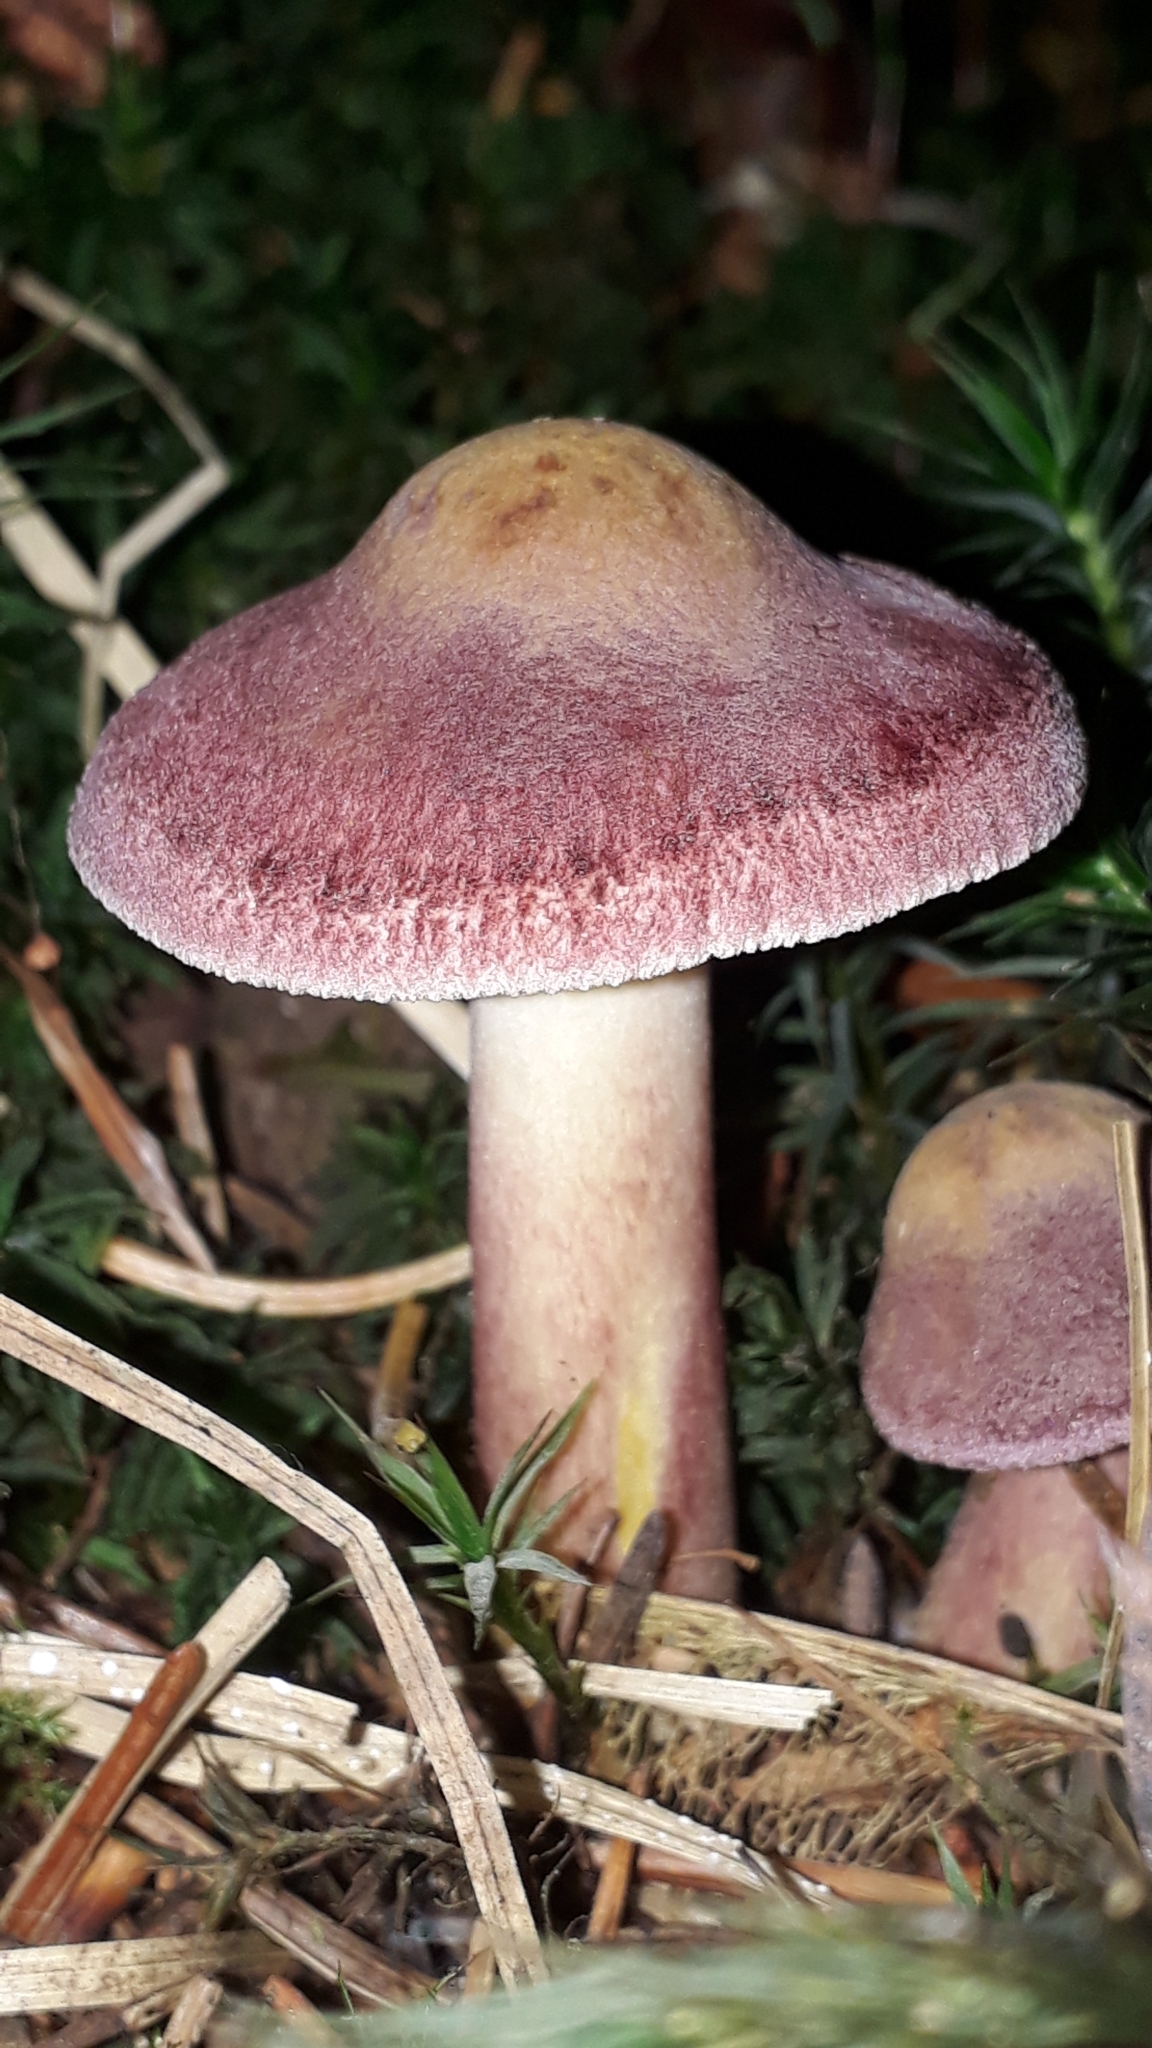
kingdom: Fungi
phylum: Basidiomycota
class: Agaricomycetes
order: Agaricales
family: Tricholomataceae
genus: Tricholomopsis
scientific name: Tricholomopsis rutilans
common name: Plums and custard
